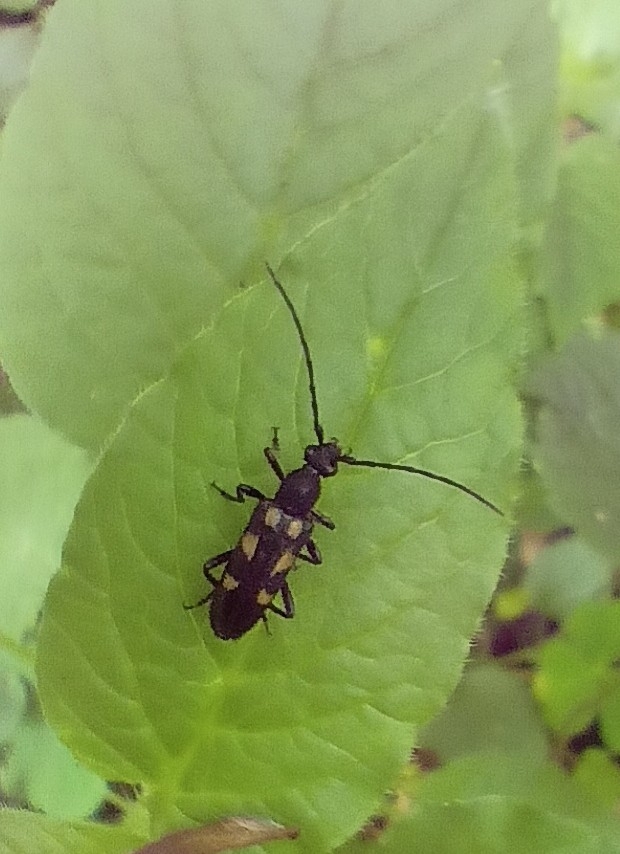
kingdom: Animalia
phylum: Arthropoda
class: Insecta
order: Coleoptera
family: Cerambycidae
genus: Anoplodera
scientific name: Anoplodera sexguttata
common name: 6 spotted longhorn
